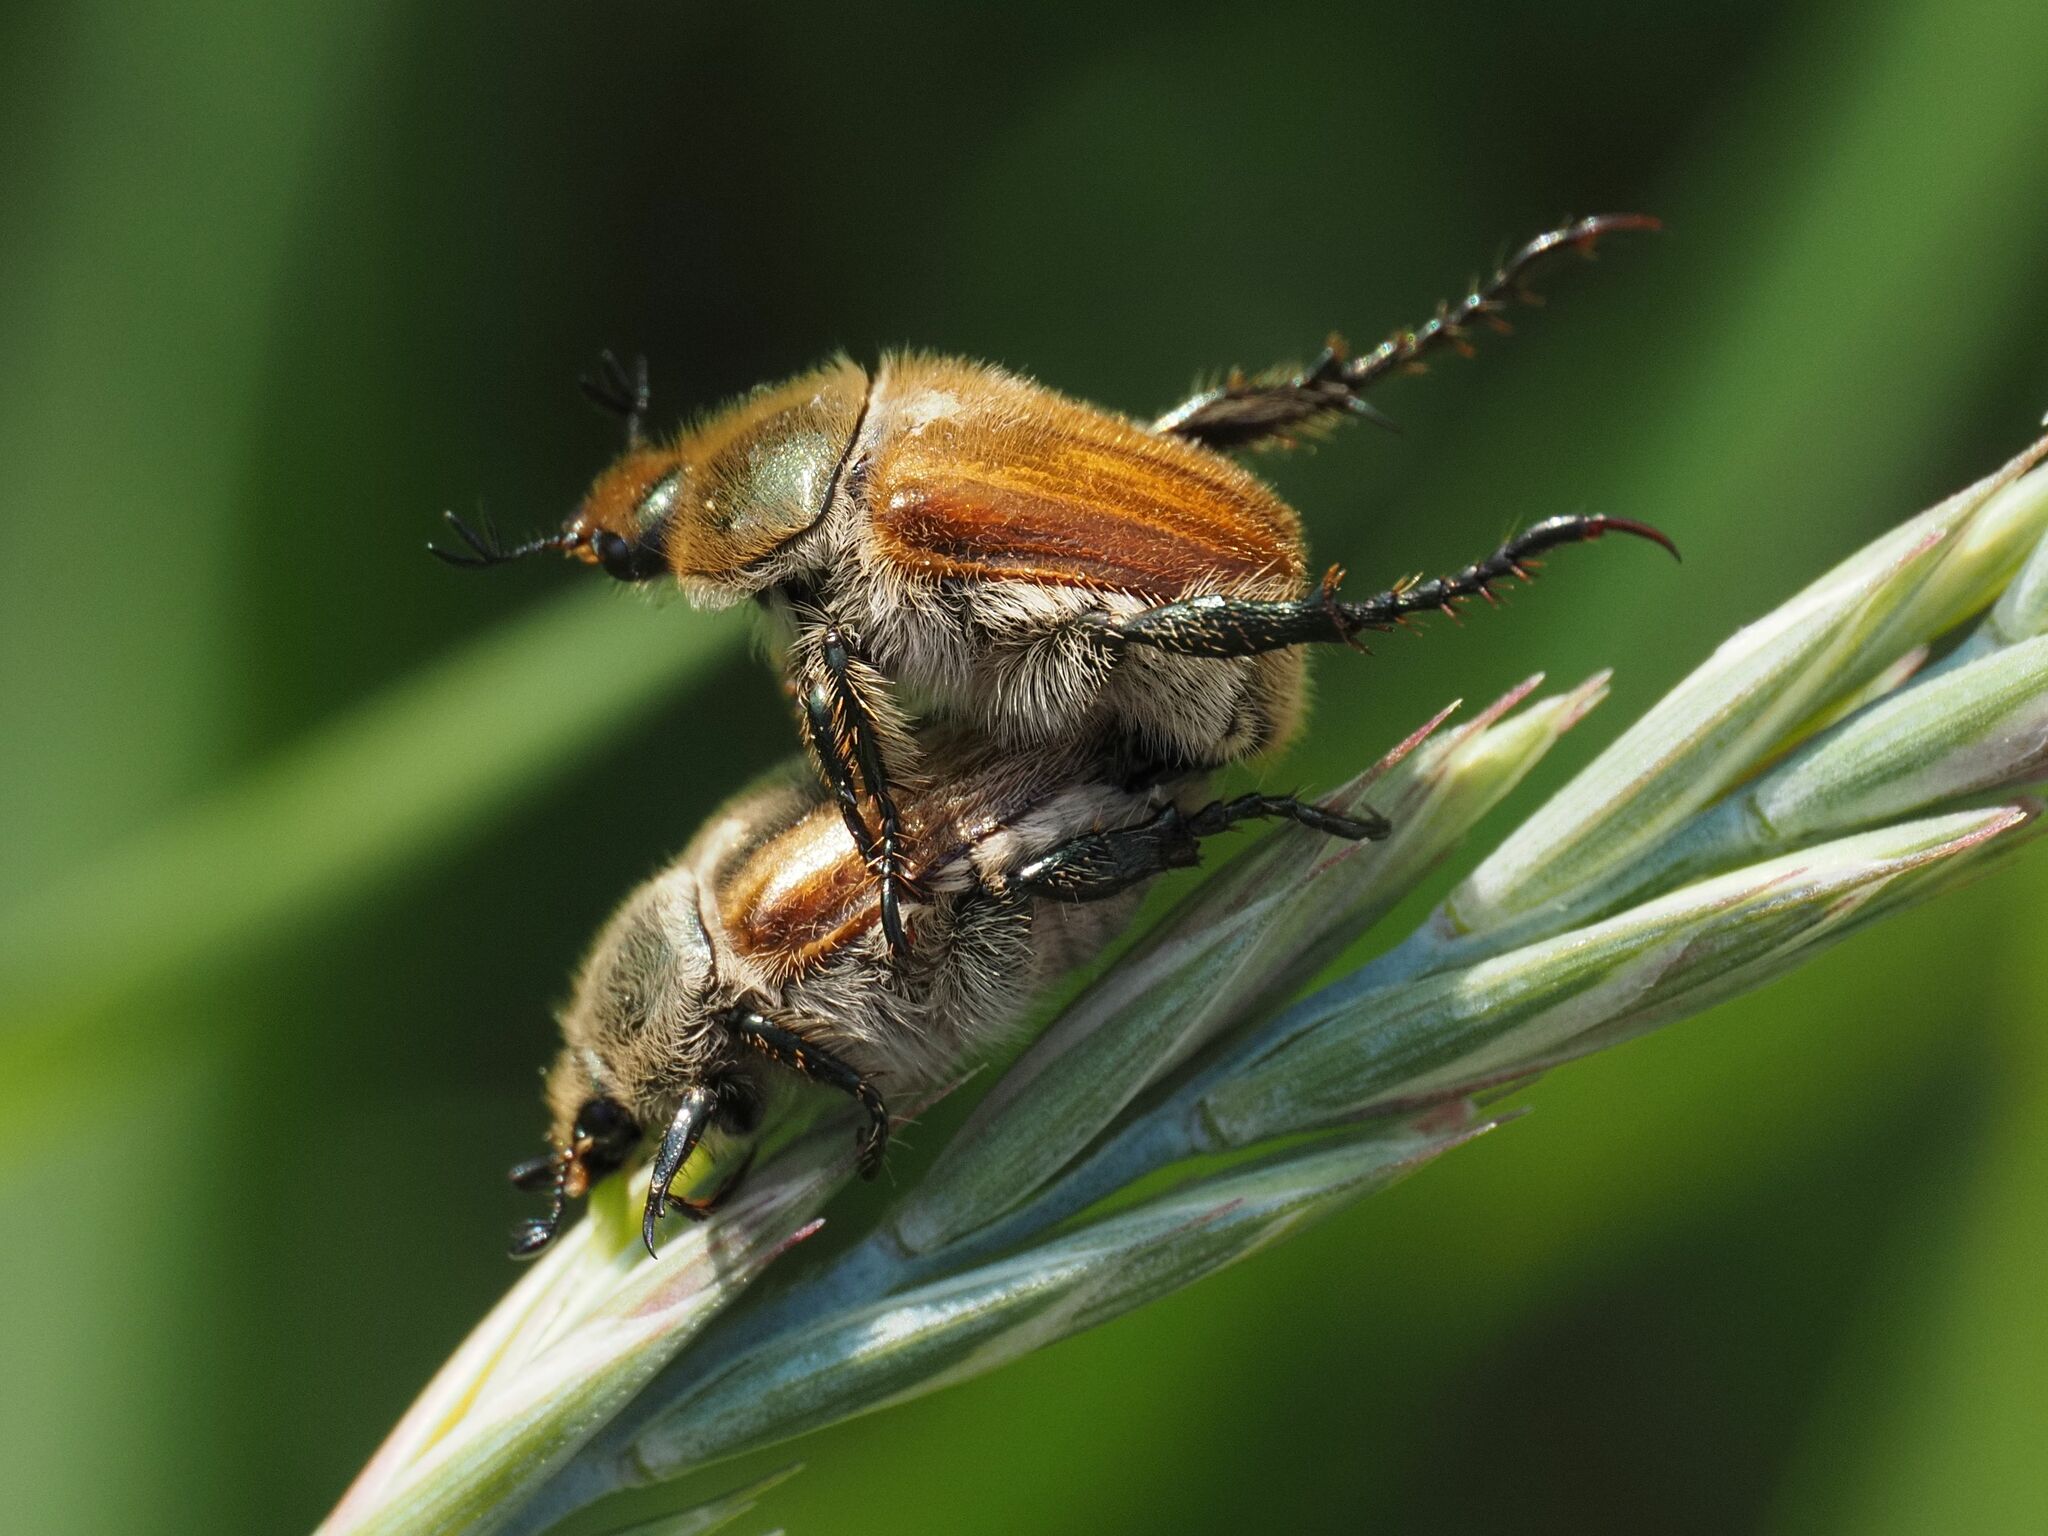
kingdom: Animalia
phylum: Arthropoda
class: Insecta
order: Coleoptera
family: Scarabaeidae
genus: Chaetopteroplia
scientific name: Chaetopteroplia segetum
